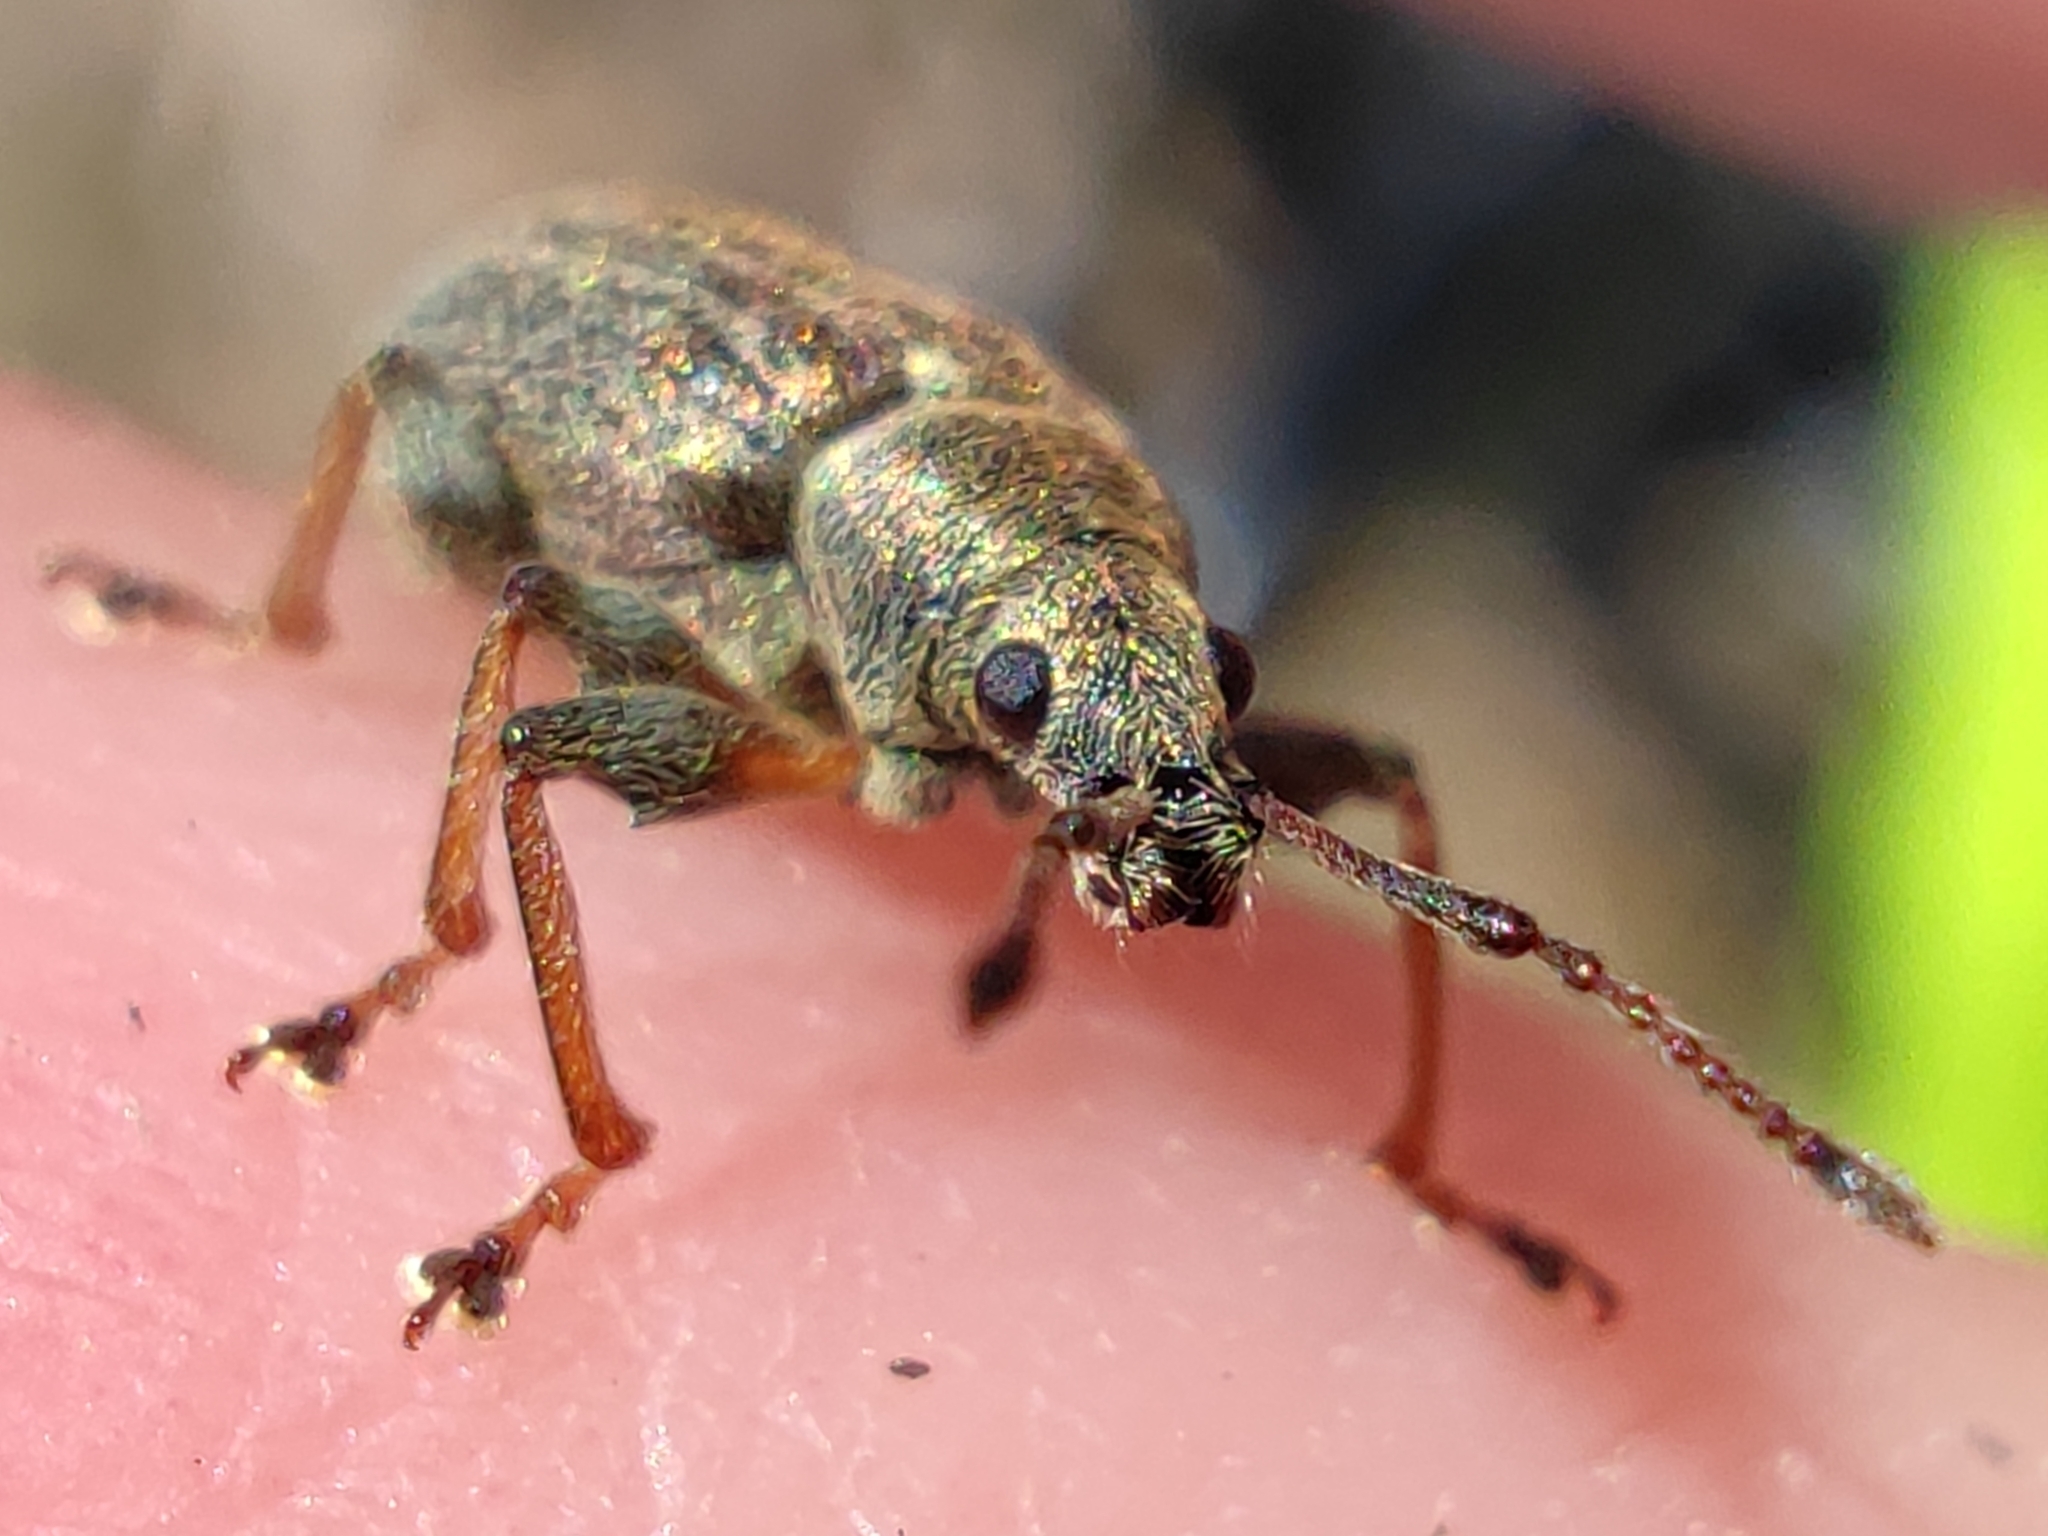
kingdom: Animalia
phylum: Arthropoda
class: Insecta
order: Coleoptera
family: Curculionidae
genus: Phyllobius
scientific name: Phyllobius pyri
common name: Common leaf weevil
